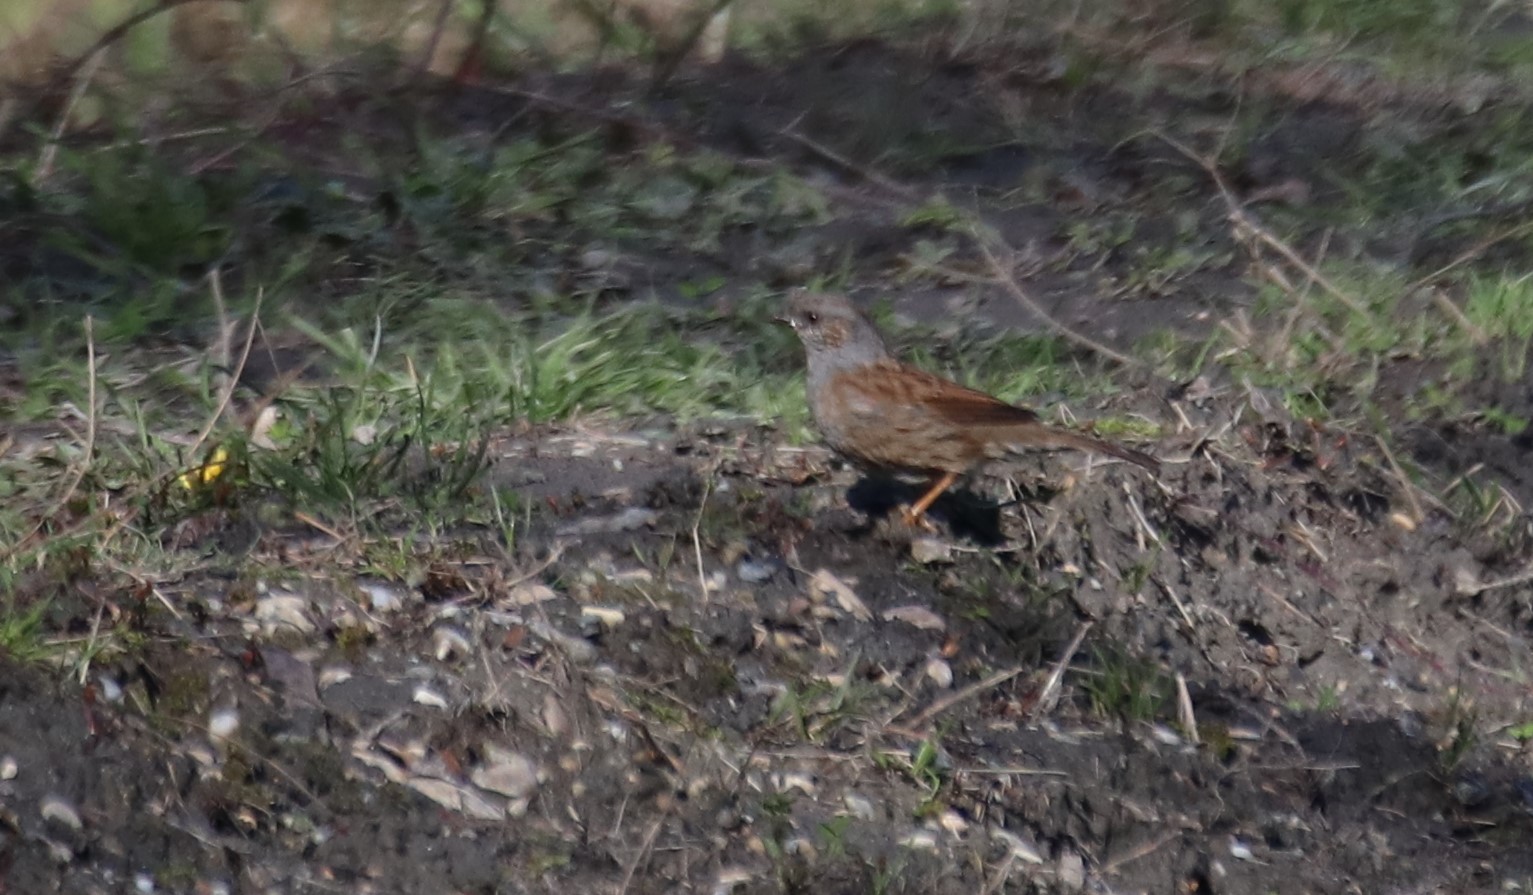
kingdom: Animalia
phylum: Chordata
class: Aves
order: Passeriformes
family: Prunellidae
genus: Prunella
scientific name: Prunella modularis
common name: Dunnock
